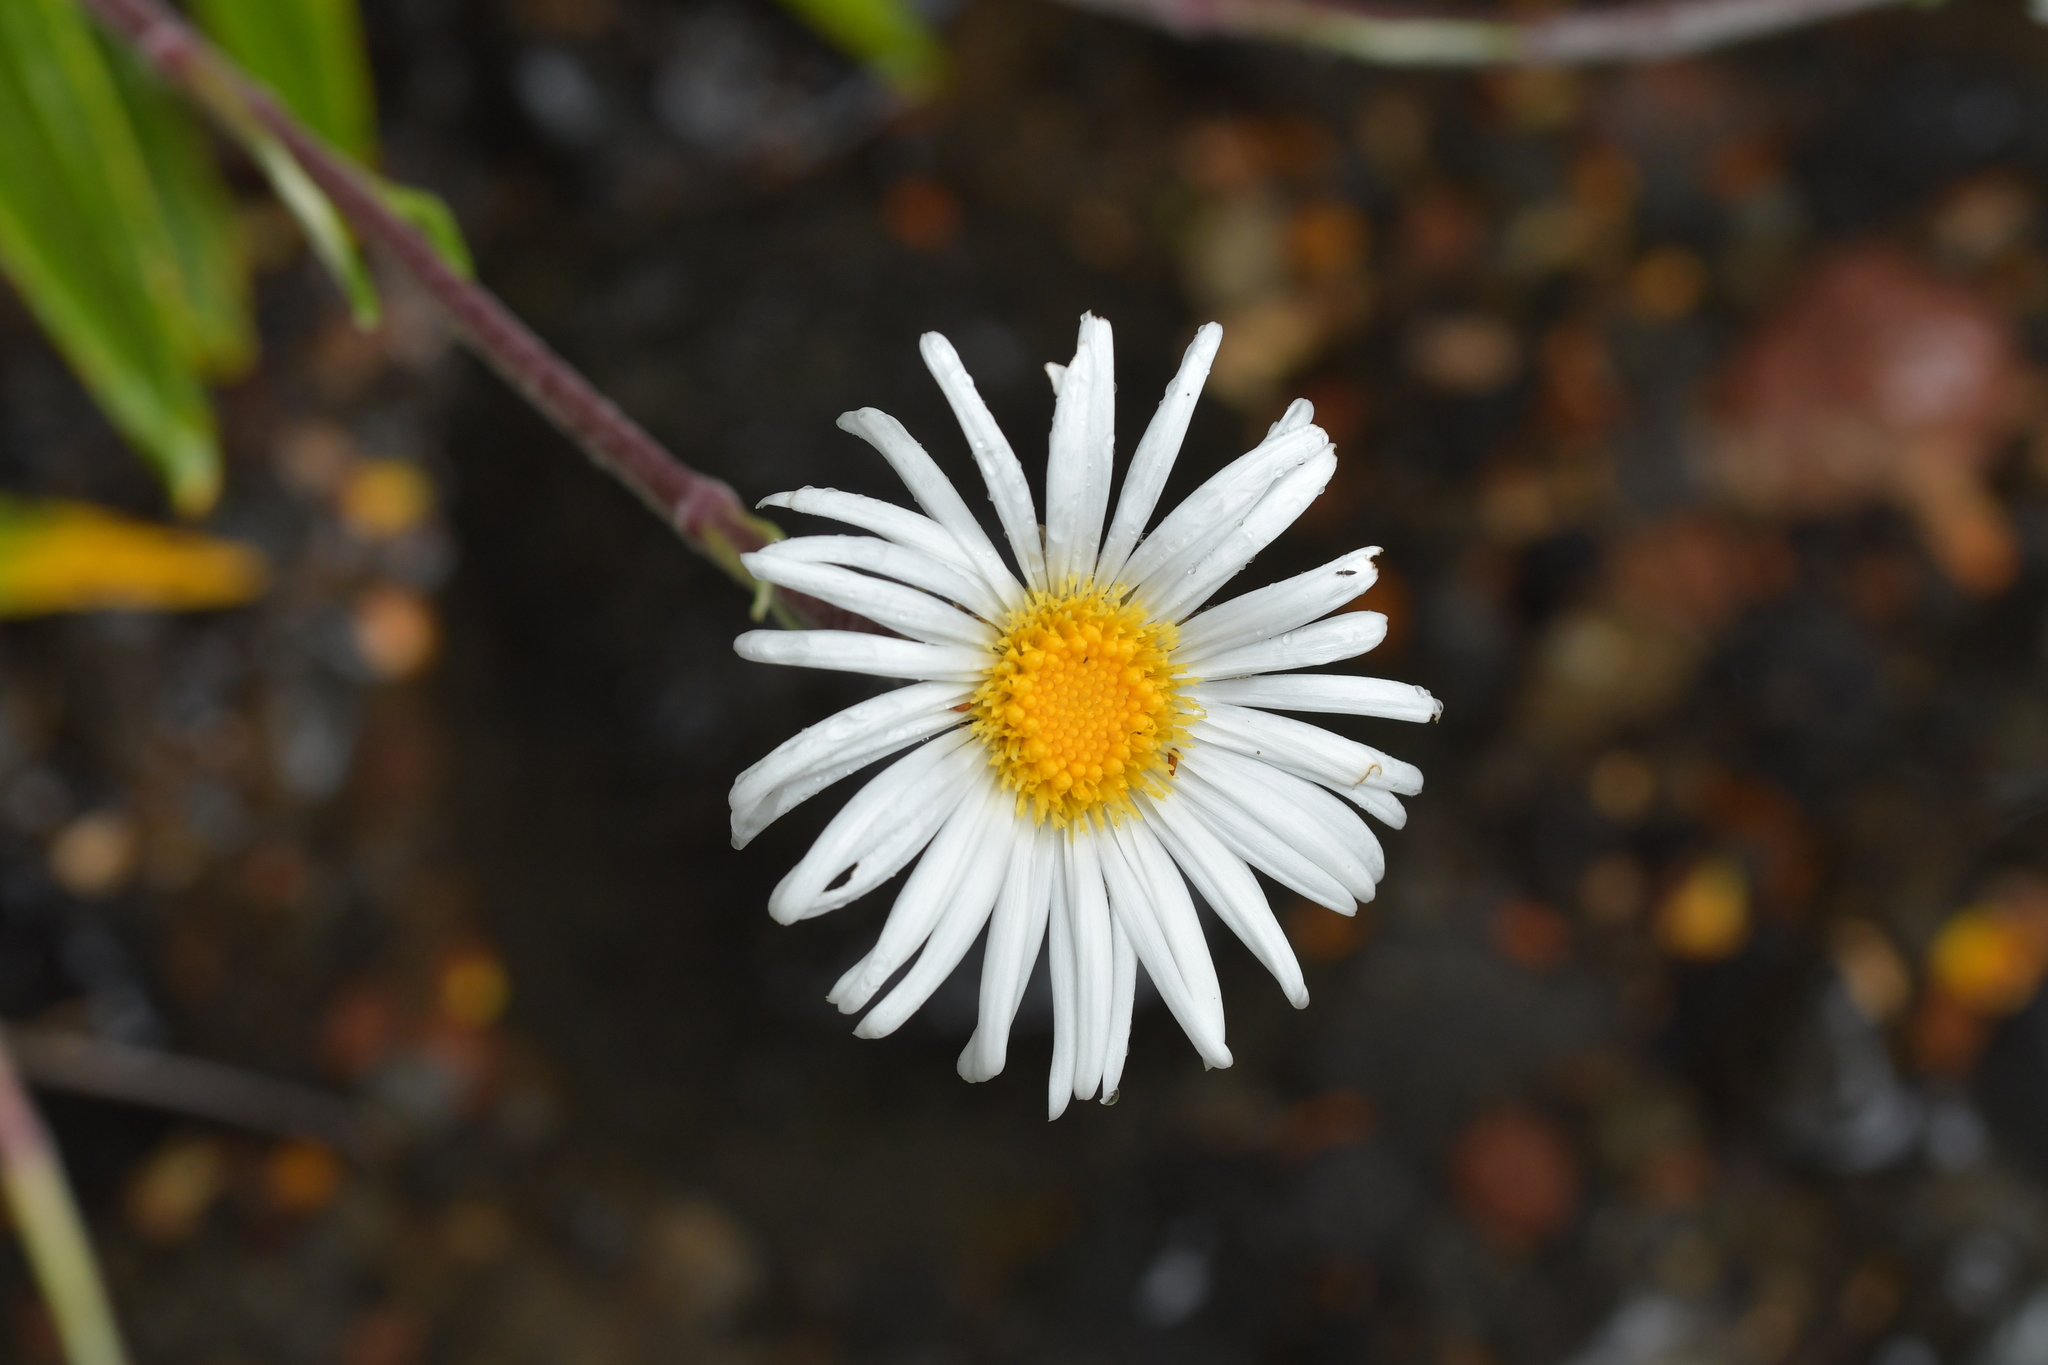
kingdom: Plantae
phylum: Tracheophyta
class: Magnoliopsida
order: Asterales
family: Asteraceae
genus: Celmisia
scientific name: Celmisia spectabilis
